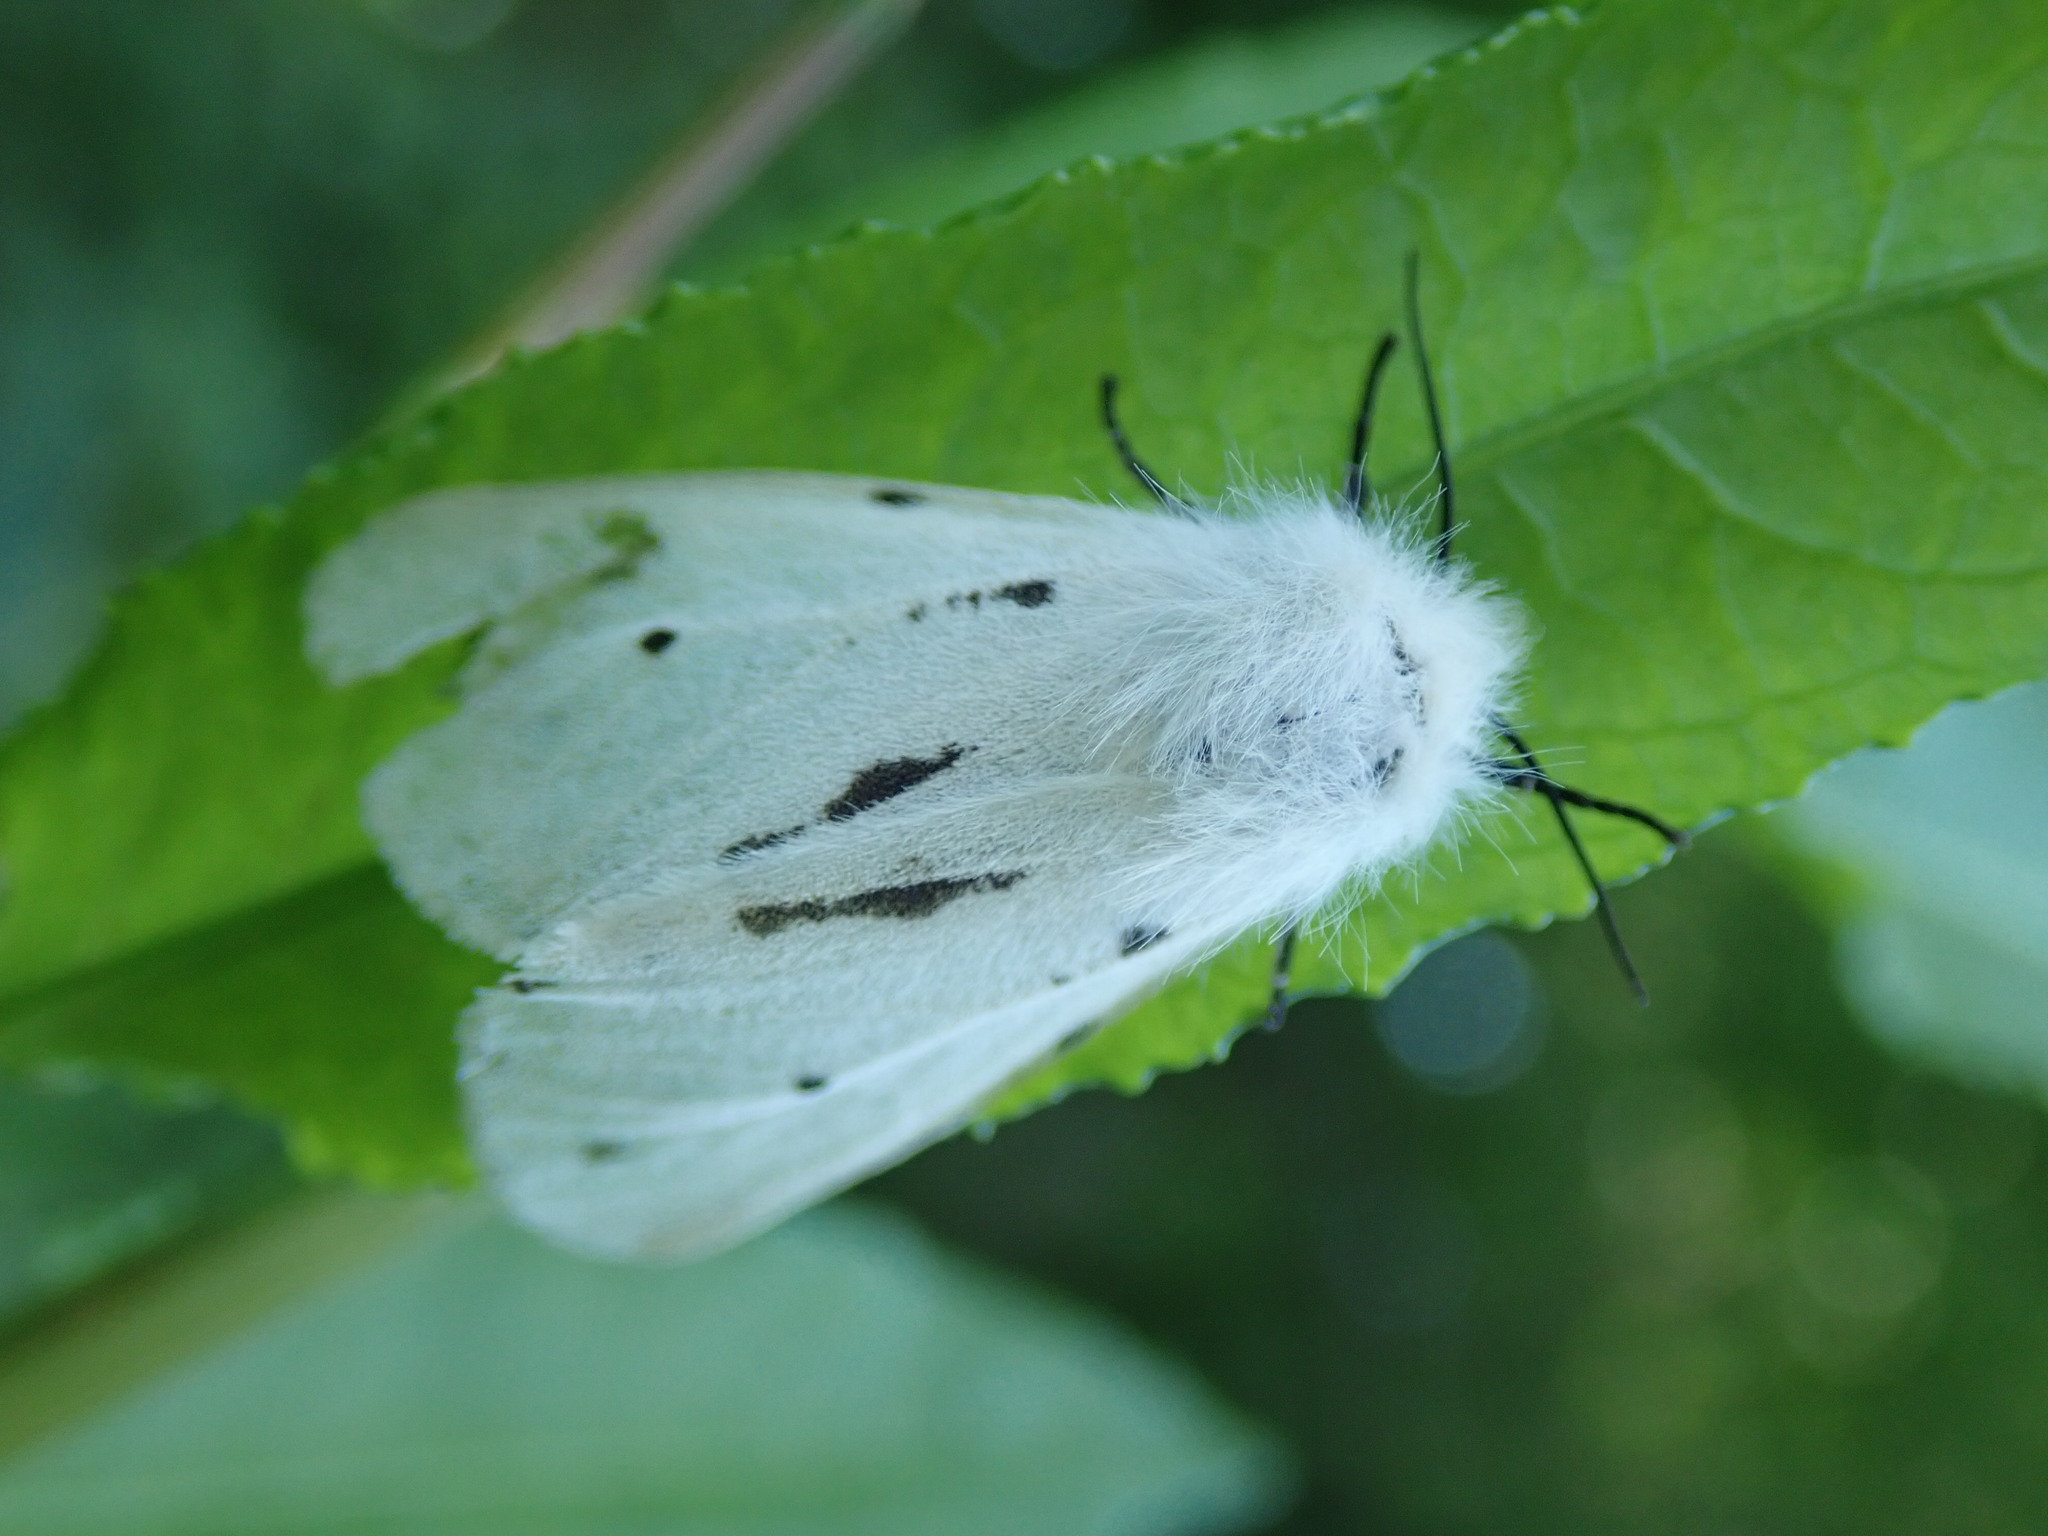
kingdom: Animalia
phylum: Arthropoda
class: Insecta
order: Lepidoptera
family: Erebidae
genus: Diaphora
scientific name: Diaphora mendica
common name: Muslin moth
